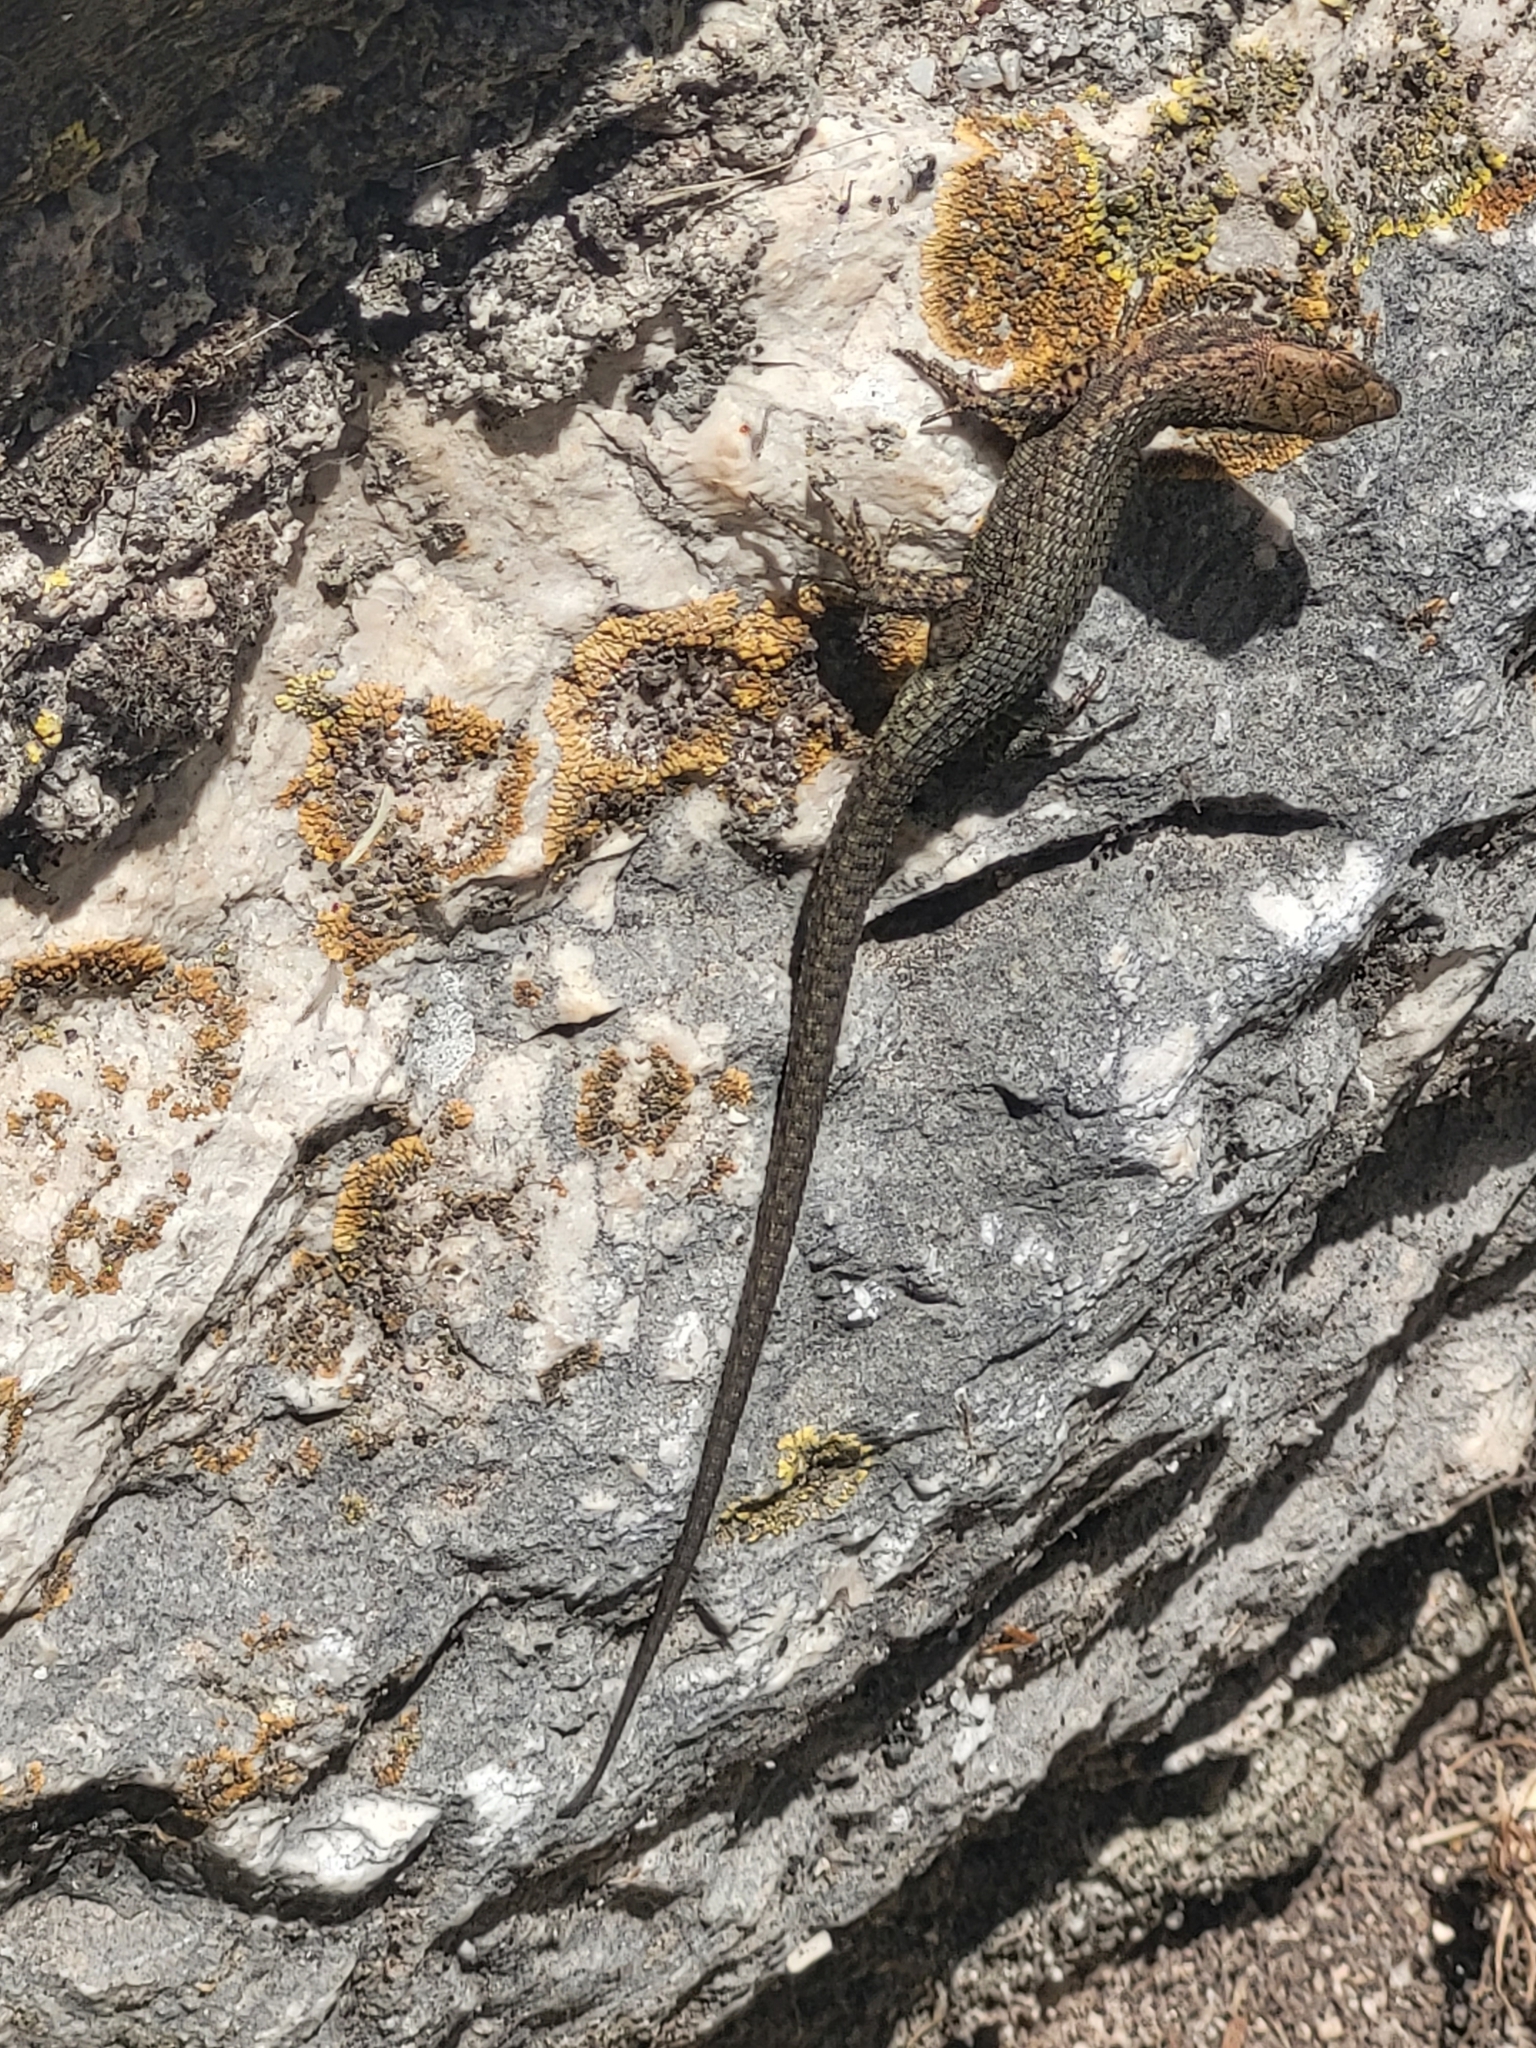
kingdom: Animalia
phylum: Chordata
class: Squamata
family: Lacertidae
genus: Algyroides
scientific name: Algyroides nigropunctatus
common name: Blue-throated keeled lizard
